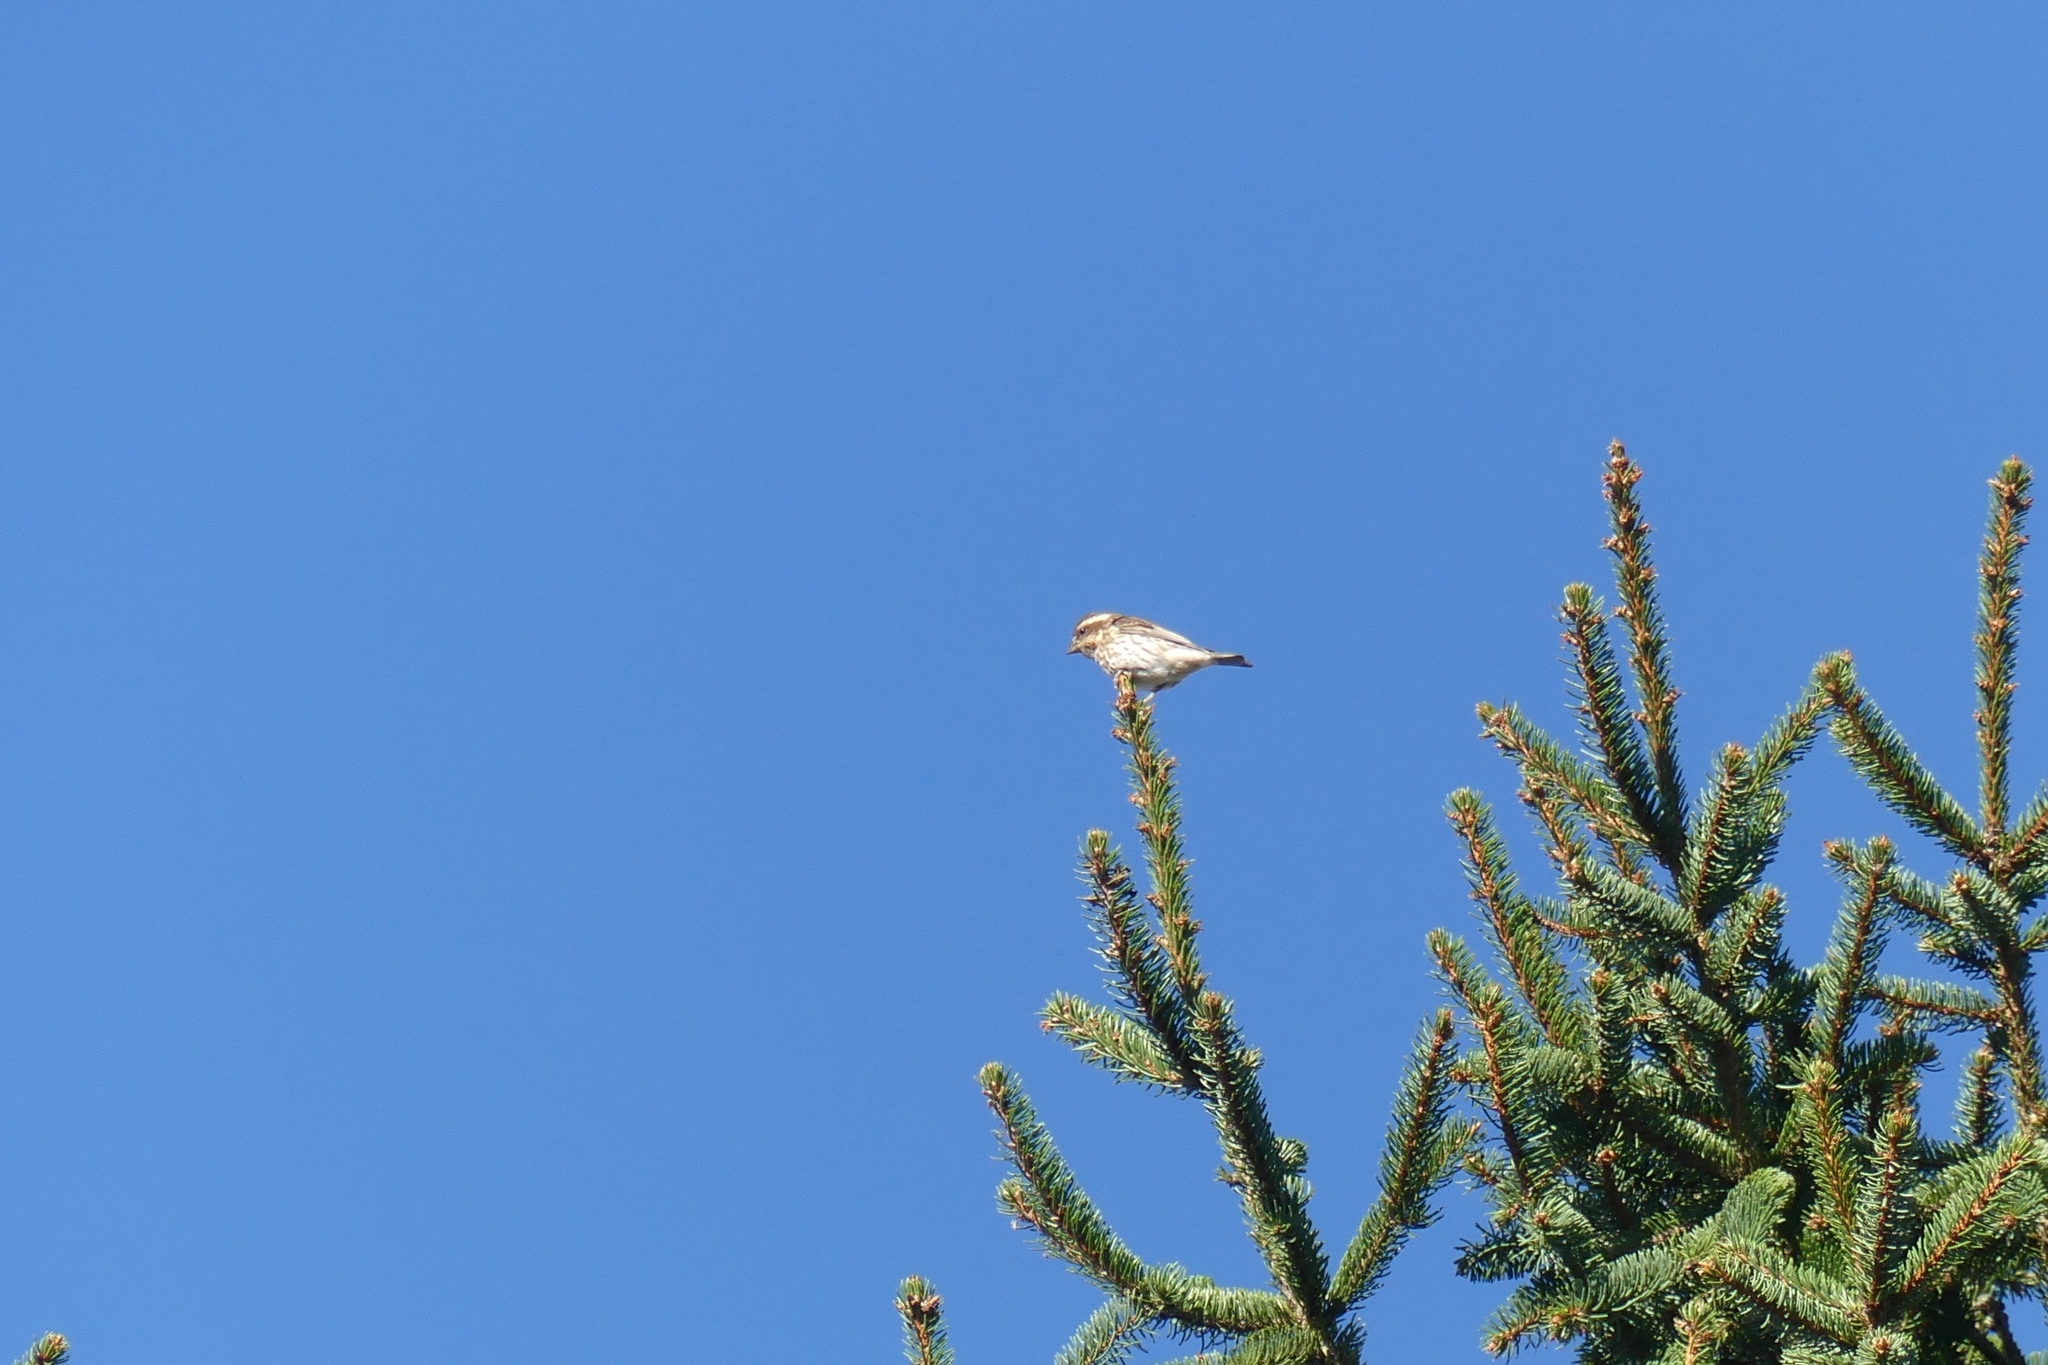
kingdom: Animalia
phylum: Chordata
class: Aves
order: Passeriformes
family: Fringillidae
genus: Haemorhous
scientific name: Haemorhous purpureus
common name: Purple finch
